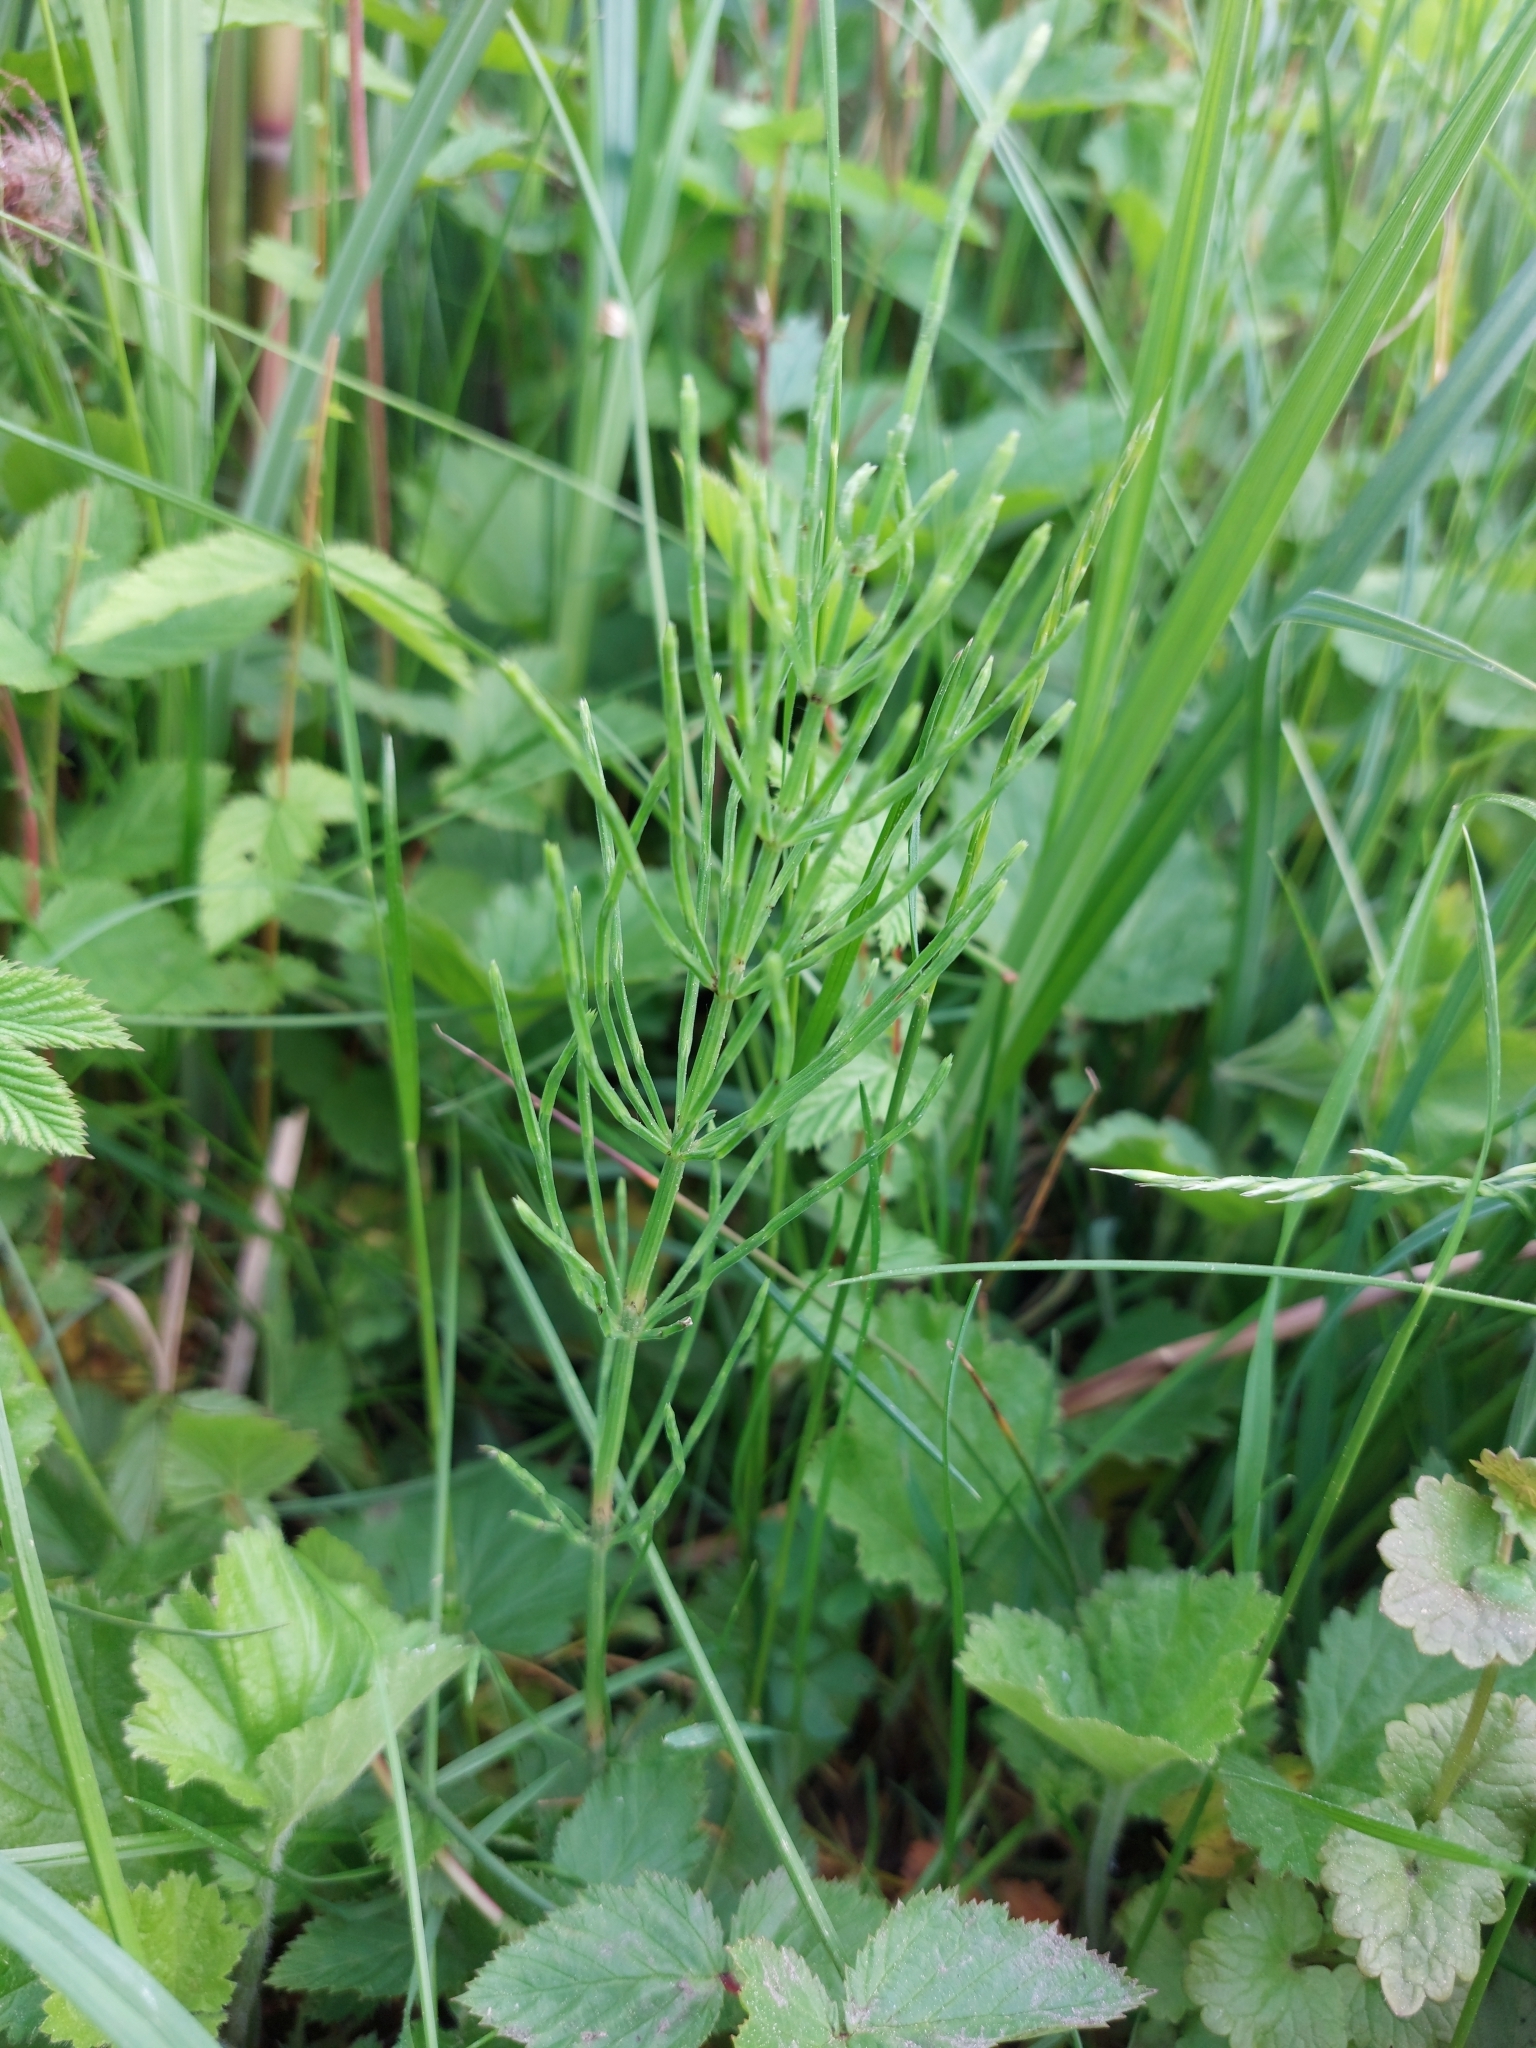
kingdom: Plantae
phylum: Tracheophyta
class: Polypodiopsida
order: Equisetales
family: Equisetaceae
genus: Equisetum
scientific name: Equisetum arvense
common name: Field horsetail
